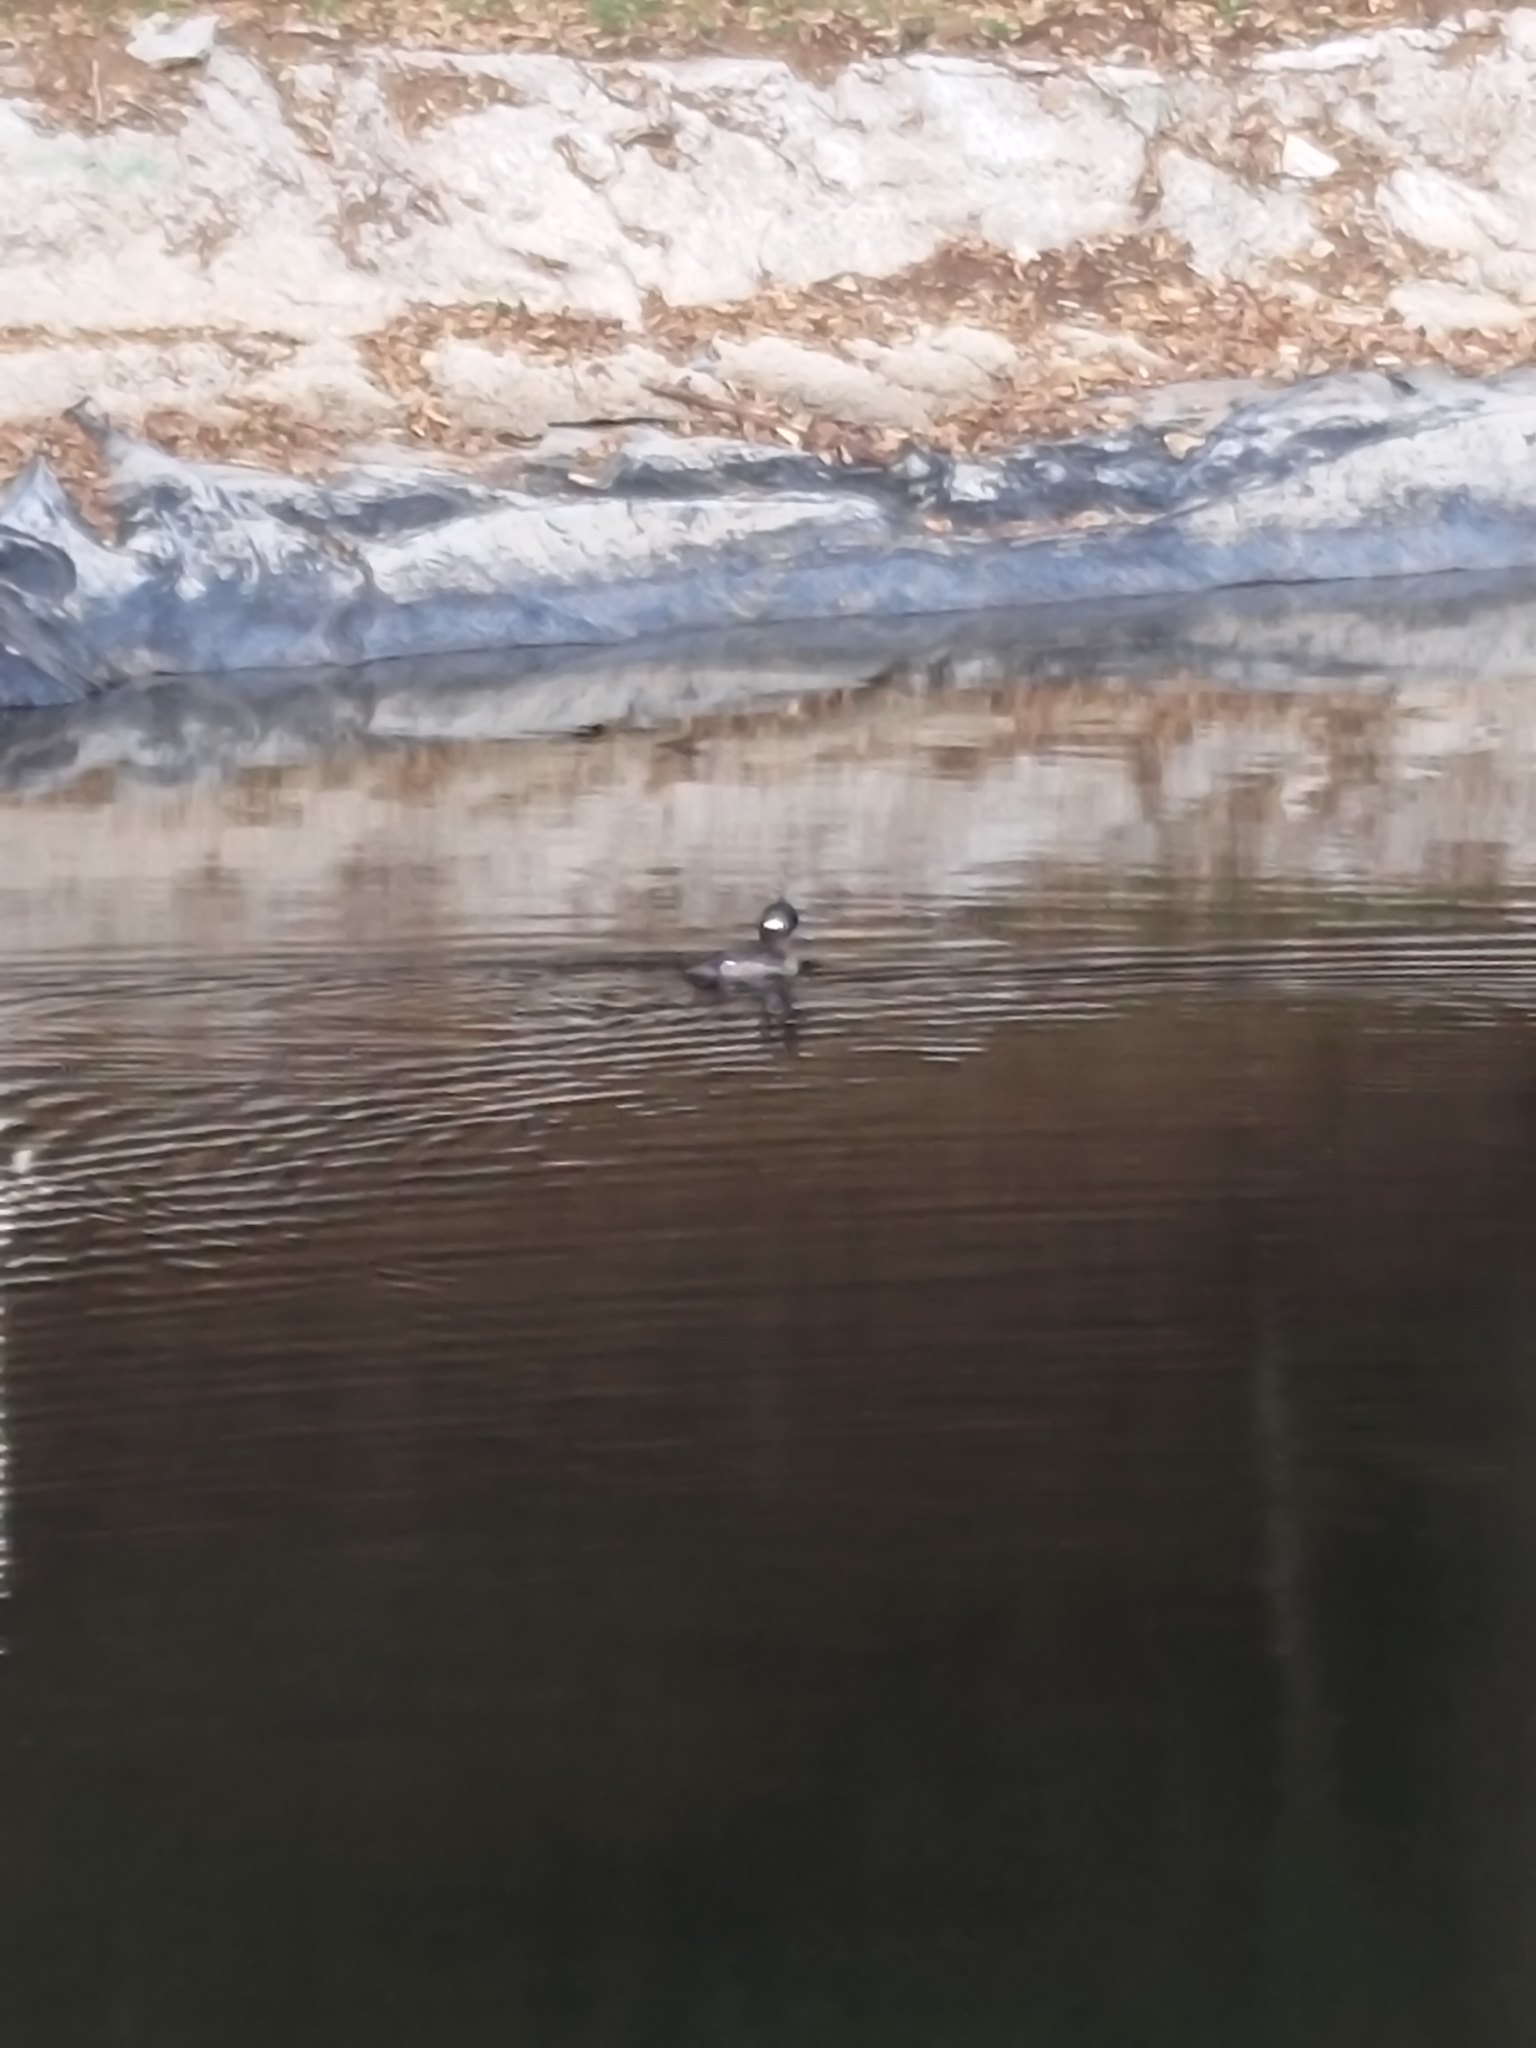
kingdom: Animalia
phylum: Chordata
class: Aves
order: Anseriformes
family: Anatidae
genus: Bucephala
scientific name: Bucephala albeola
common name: Bufflehead
